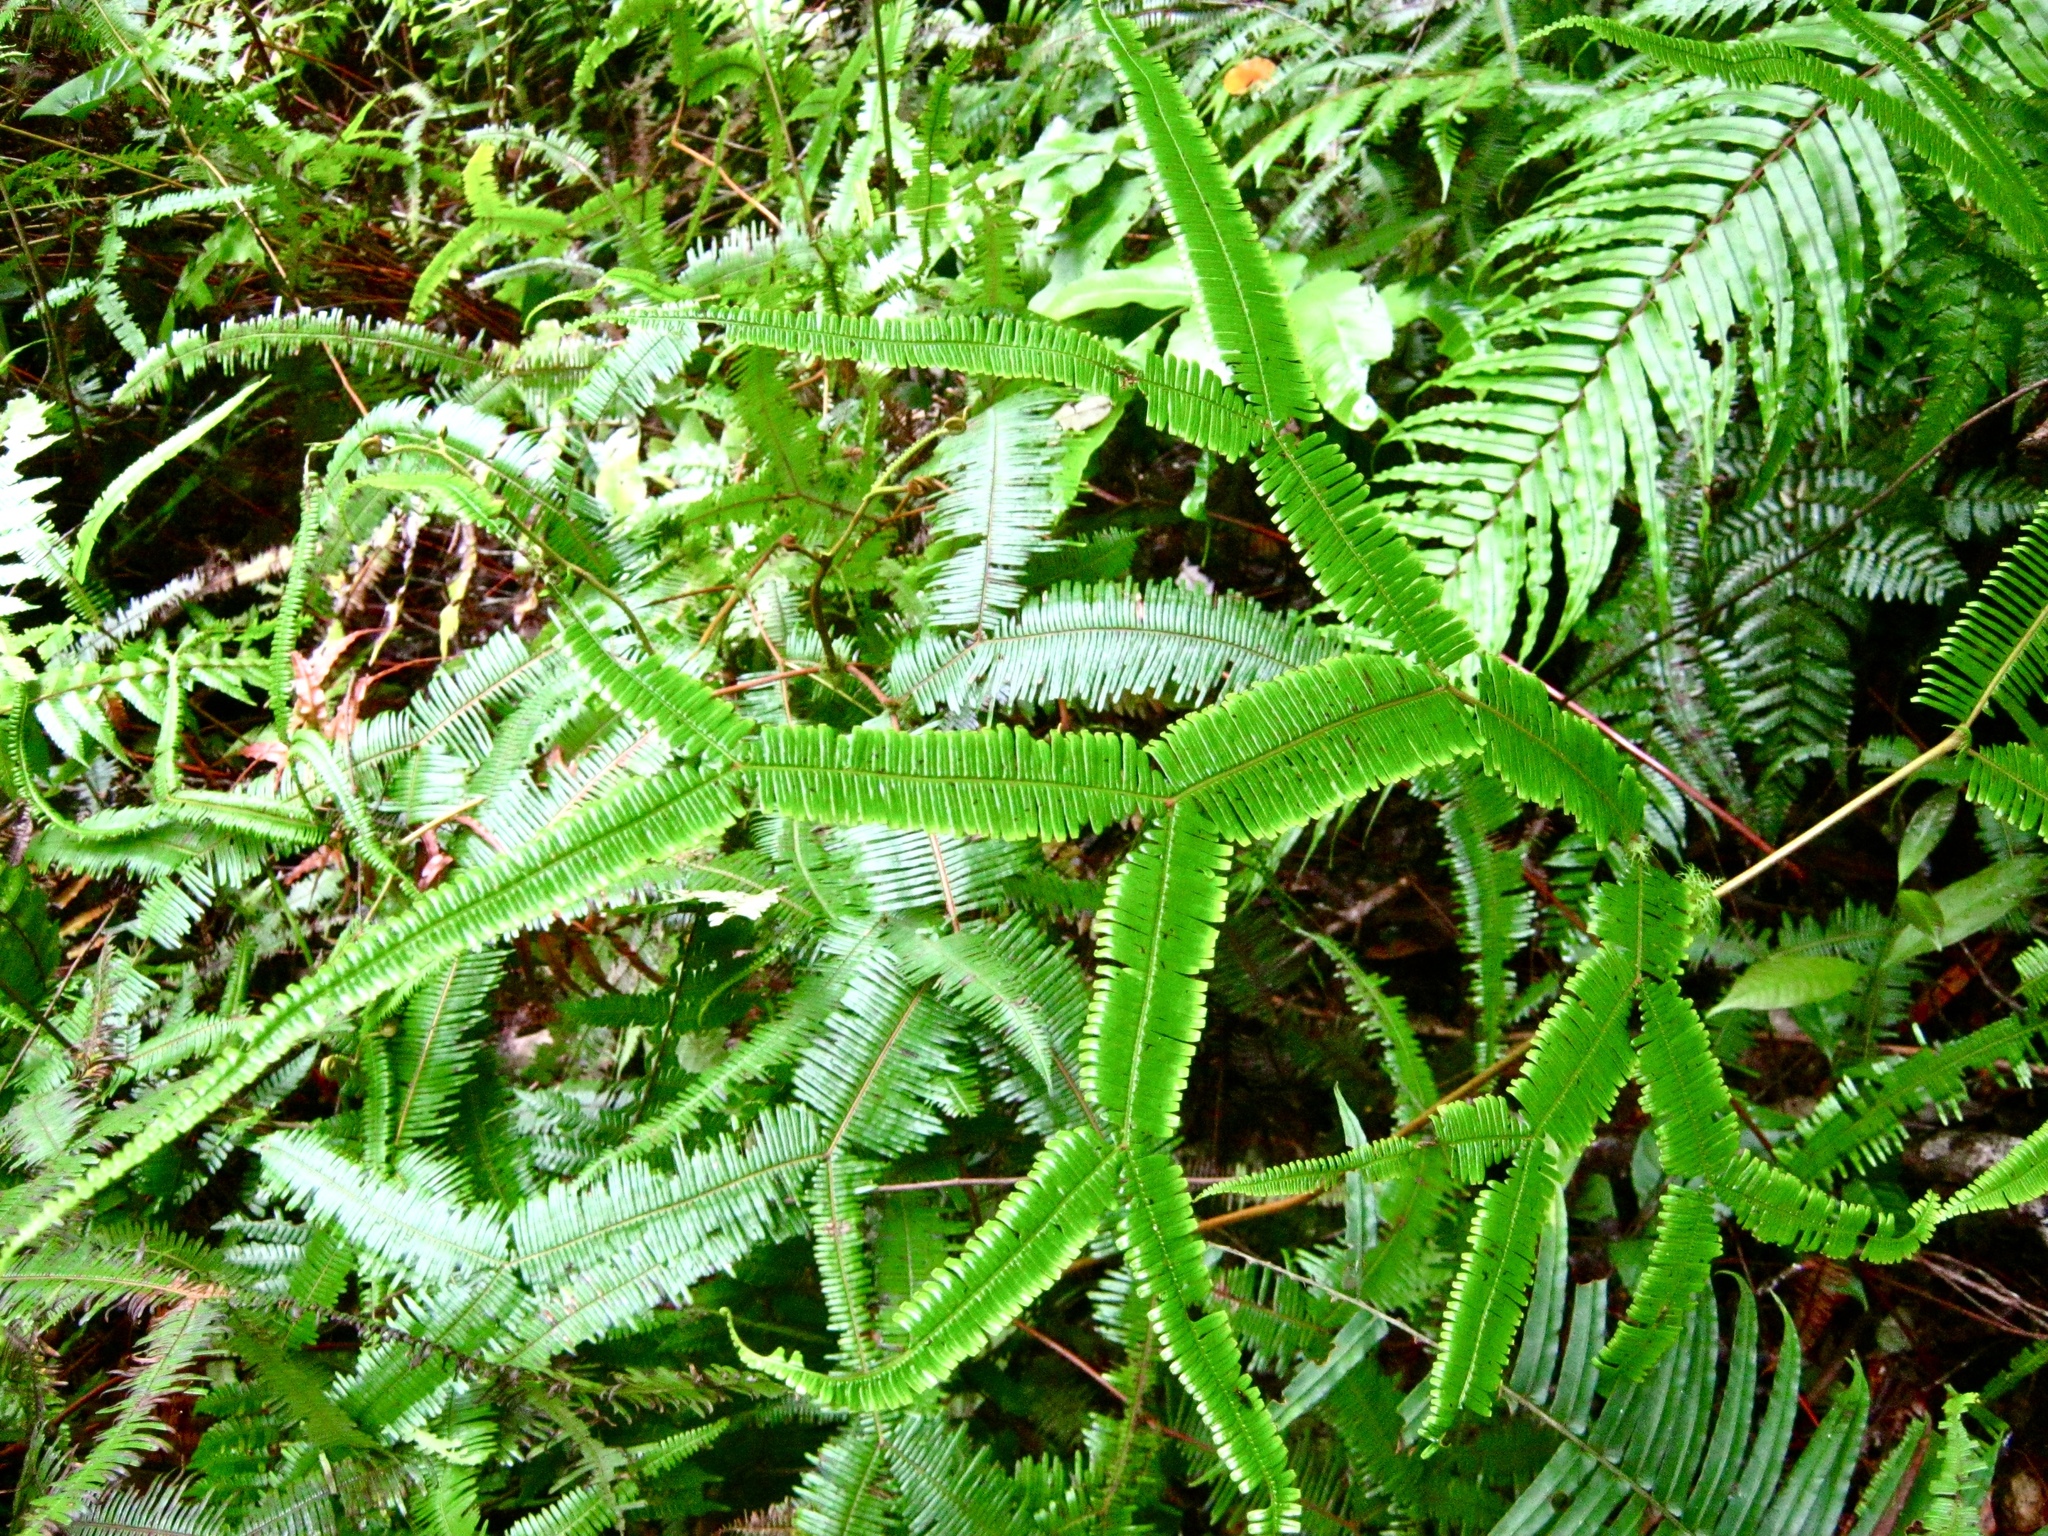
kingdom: Plantae
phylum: Tracheophyta
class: Polypodiopsida
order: Gleicheniales
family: Gleicheniaceae
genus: Sticherus
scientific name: Sticherus truncatus
